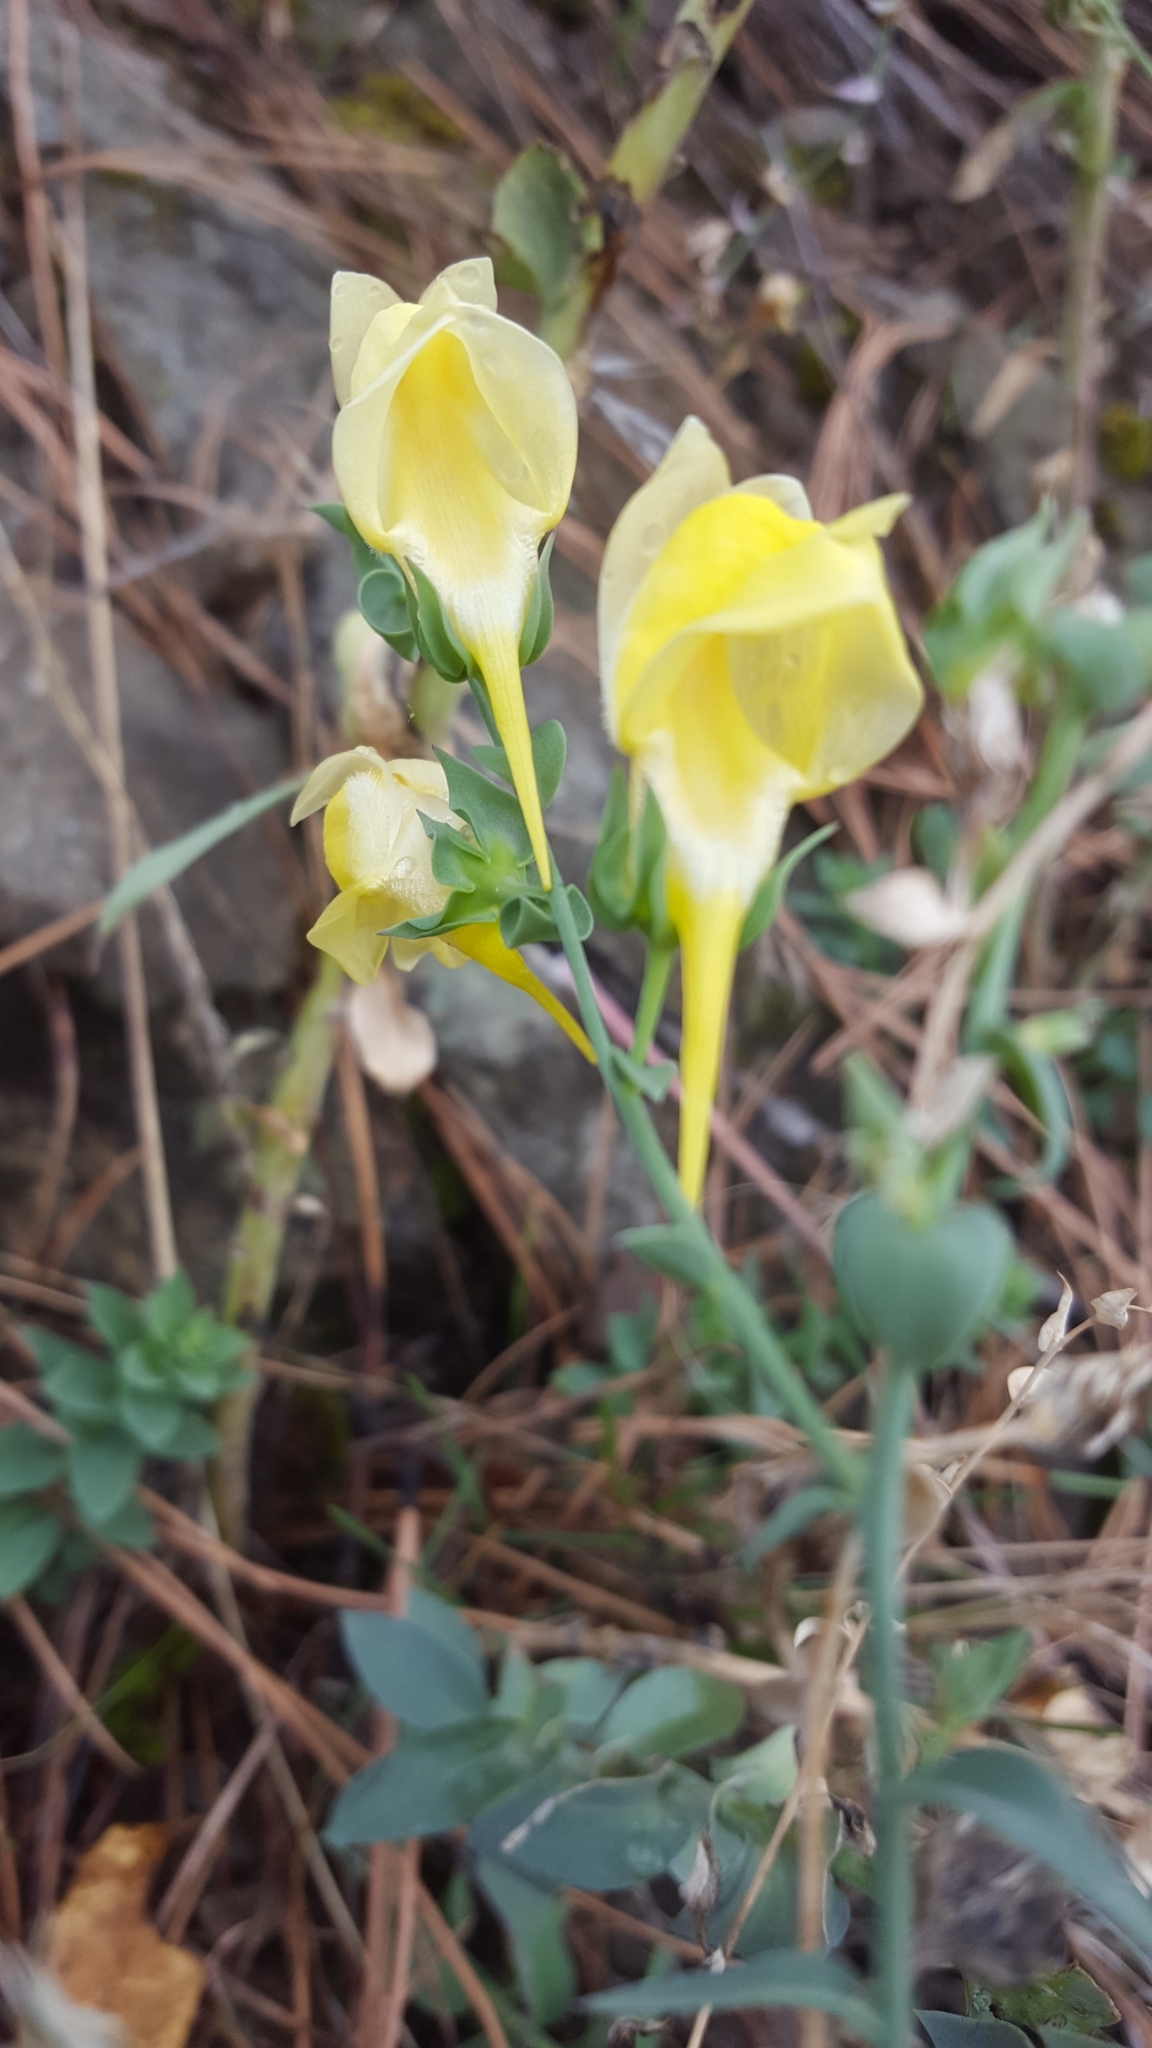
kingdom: Plantae
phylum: Tracheophyta
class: Magnoliopsida
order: Lamiales
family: Plantaginaceae
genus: Linaria
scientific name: Linaria dalmatica
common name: Dalmatian toadflax
